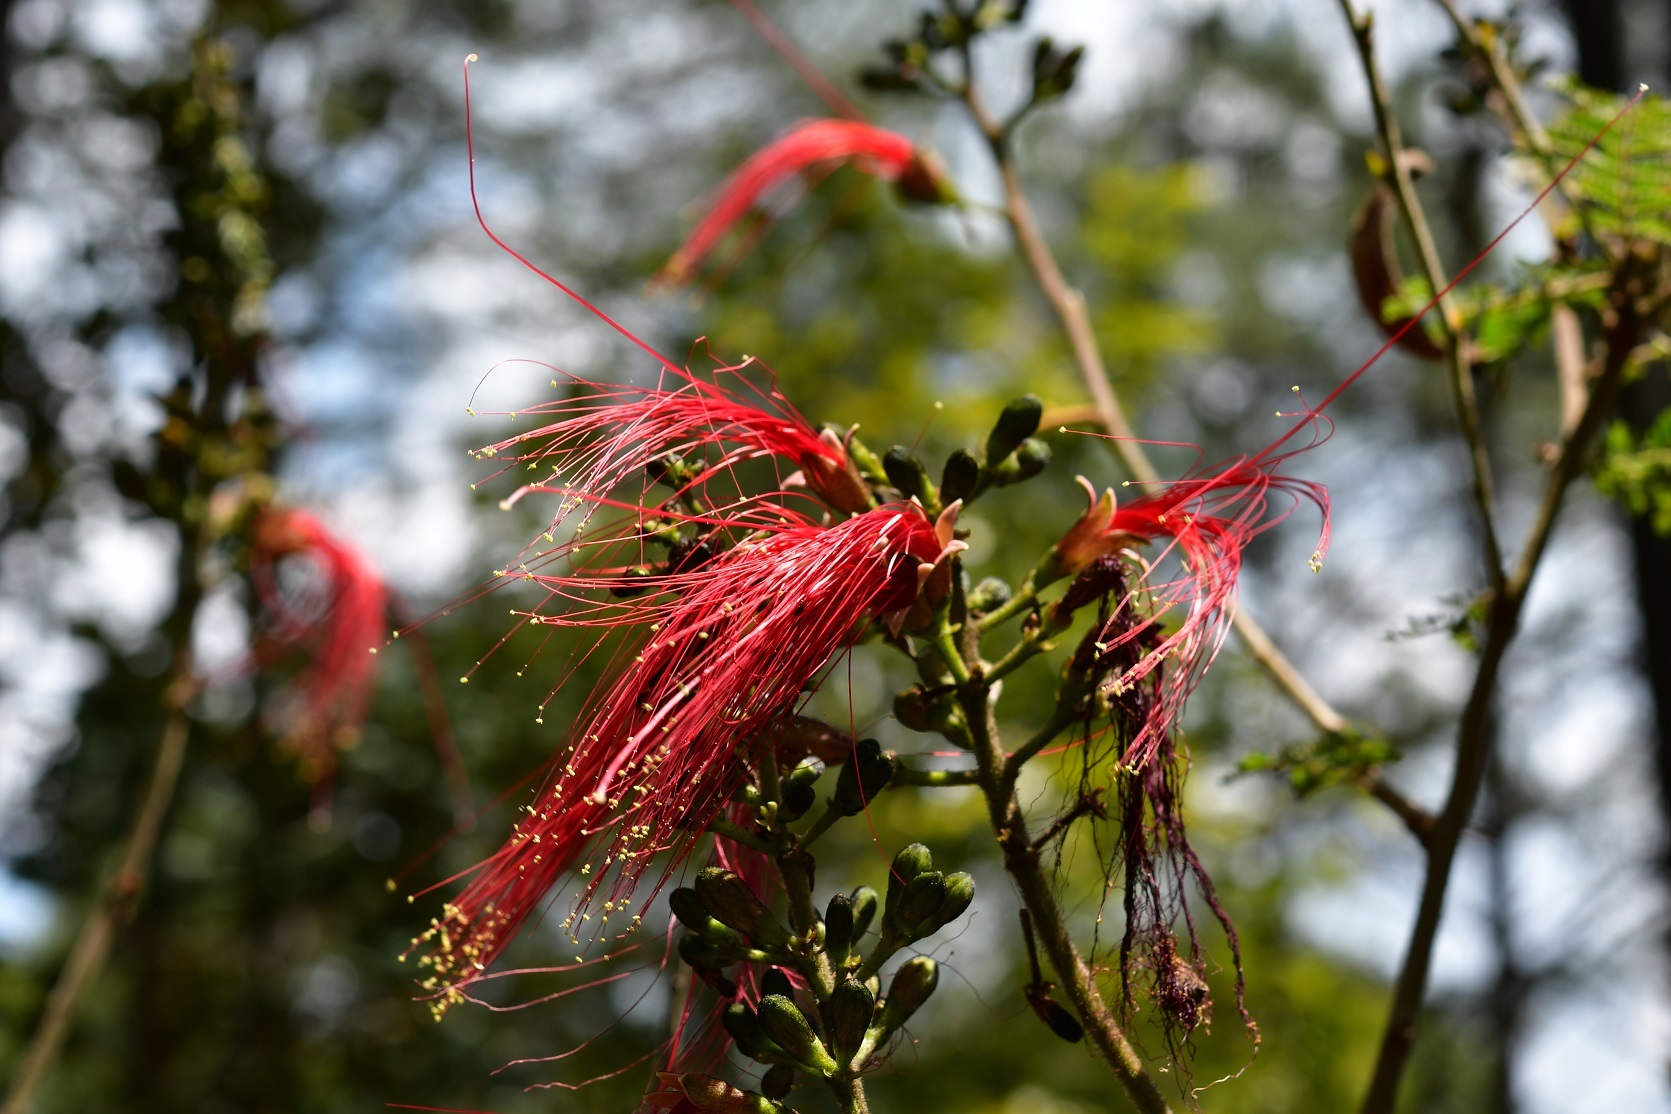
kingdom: Plantae
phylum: Tracheophyta
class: Magnoliopsida
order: Fabales
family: Fabaceae
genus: Calliandra
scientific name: Calliandra houstoniana
